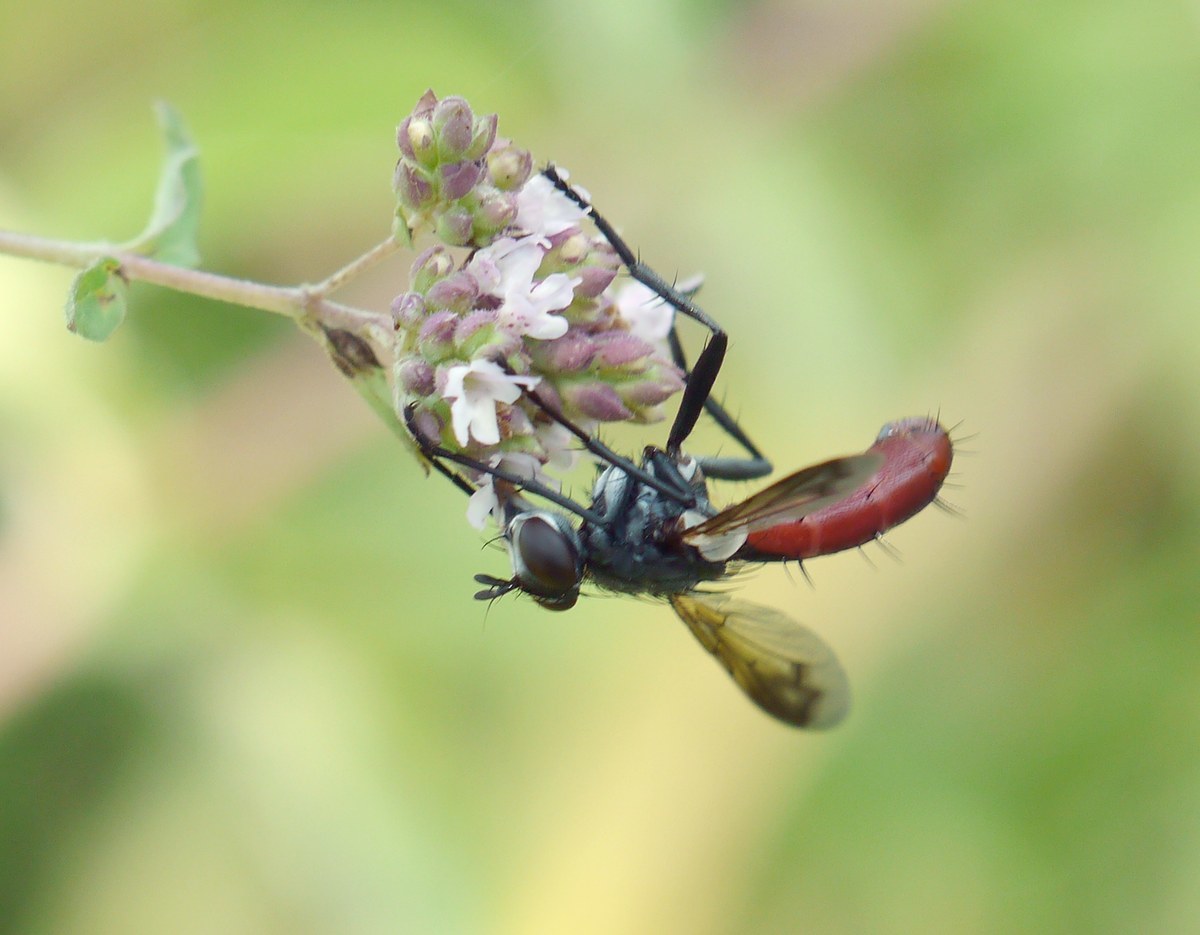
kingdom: Animalia
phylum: Arthropoda
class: Insecta
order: Diptera
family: Tachinidae
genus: Cylindromyia
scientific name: Cylindromyia bicolor
